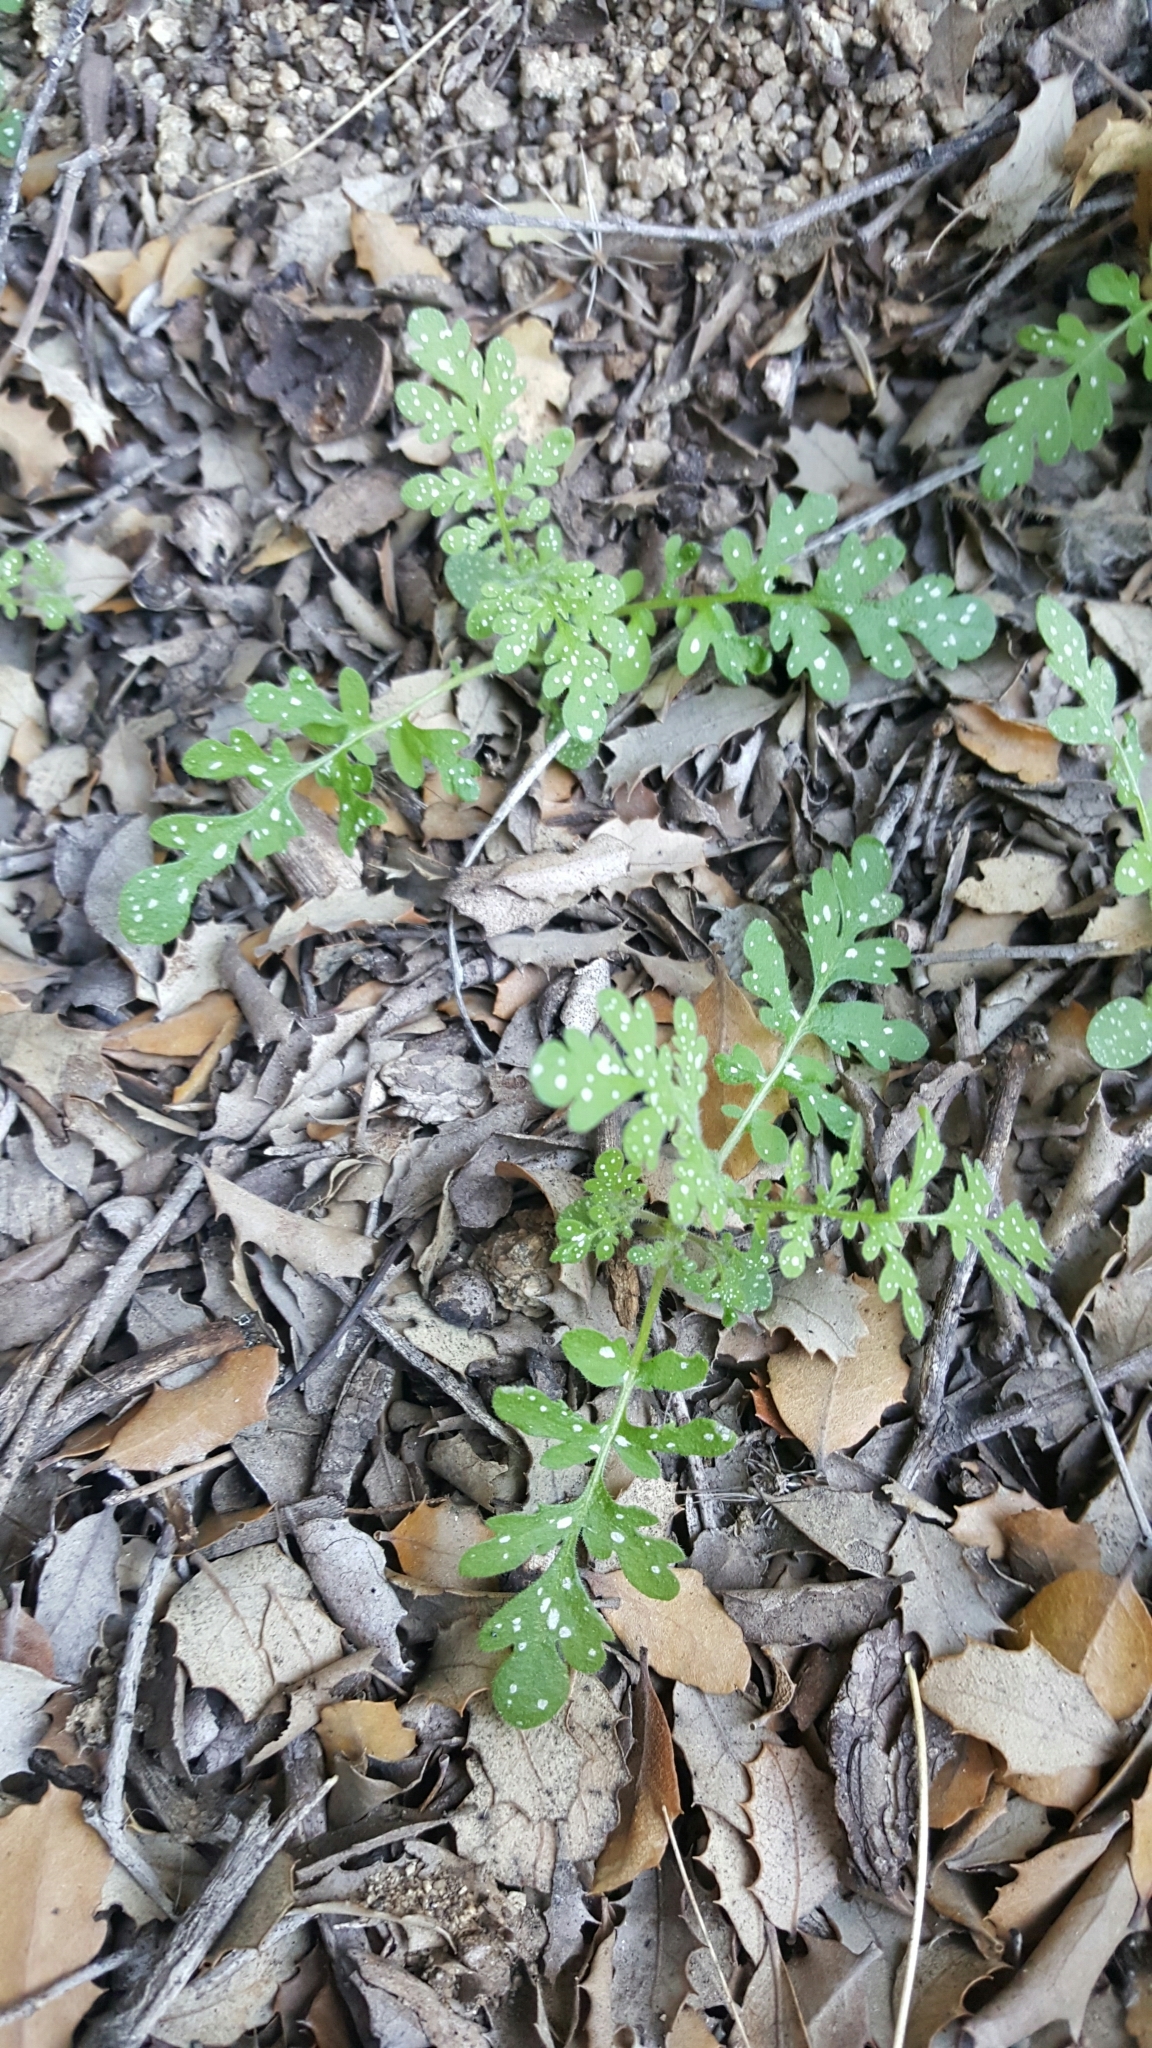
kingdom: Plantae
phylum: Tracheophyta
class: Magnoliopsida
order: Boraginales
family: Hydrophyllaceae
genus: Eucrypta
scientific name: Eucrypta chrysanthemifolia
